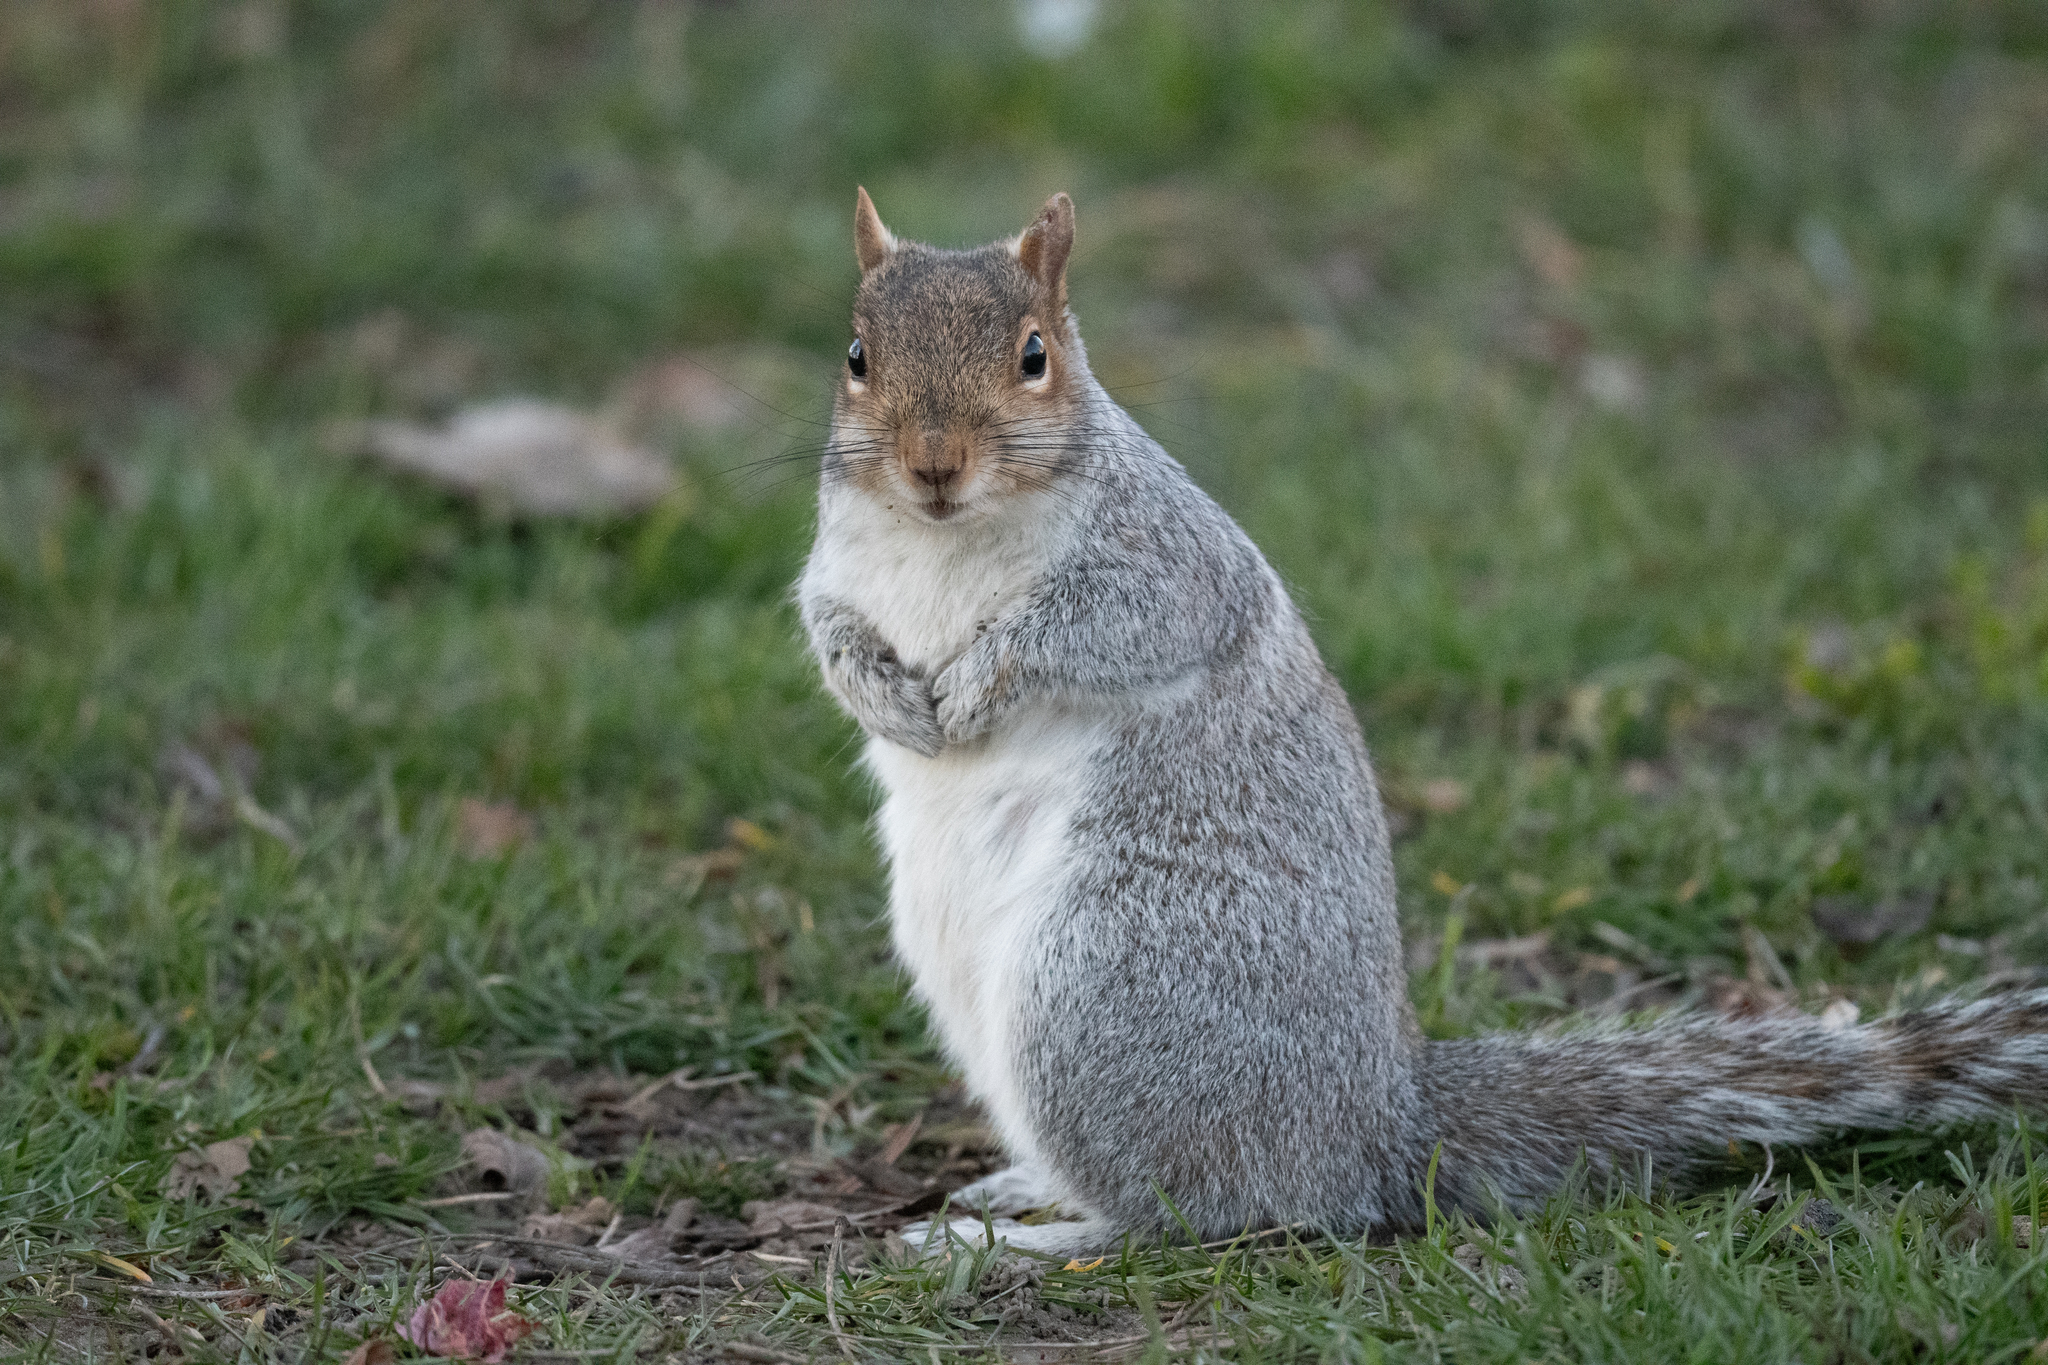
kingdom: Animalia
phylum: Chordata
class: Mammalia
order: Rodentia
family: Sciuridae
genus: Sciurus
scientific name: Sciurus carolinensis
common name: Eastern gray squirrel
